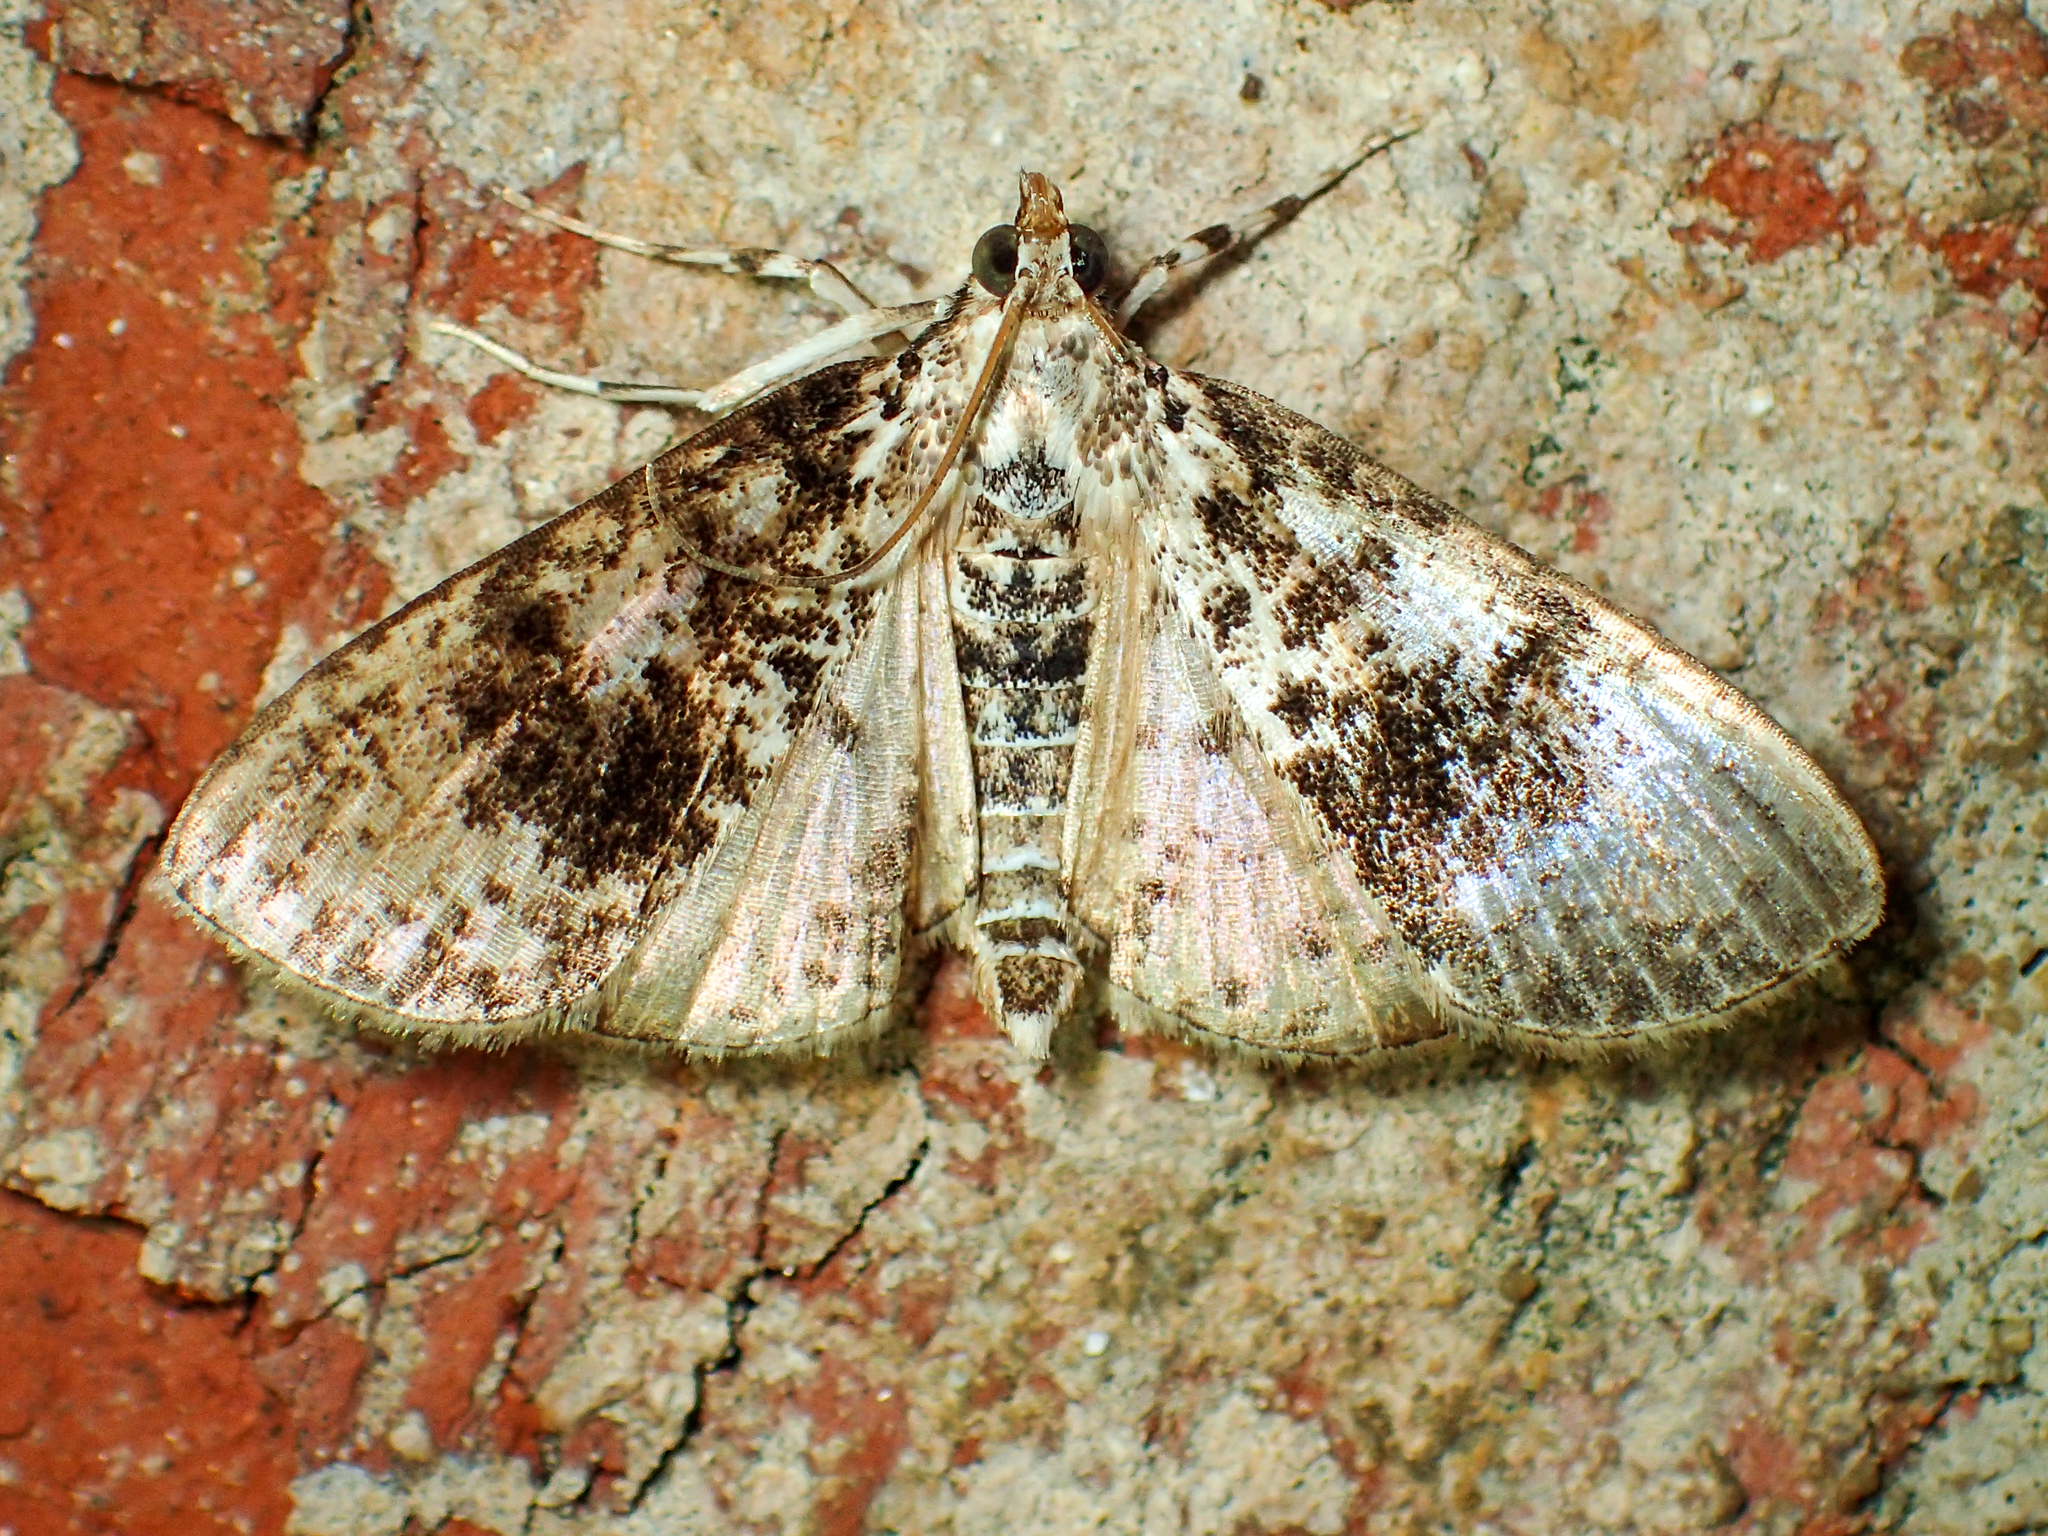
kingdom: Animalia
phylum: Arthropoda
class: Insecta
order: Lepidoptera
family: Crambidae
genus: Palpita
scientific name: Palpita magniferalis
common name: Splendid palpita moth
